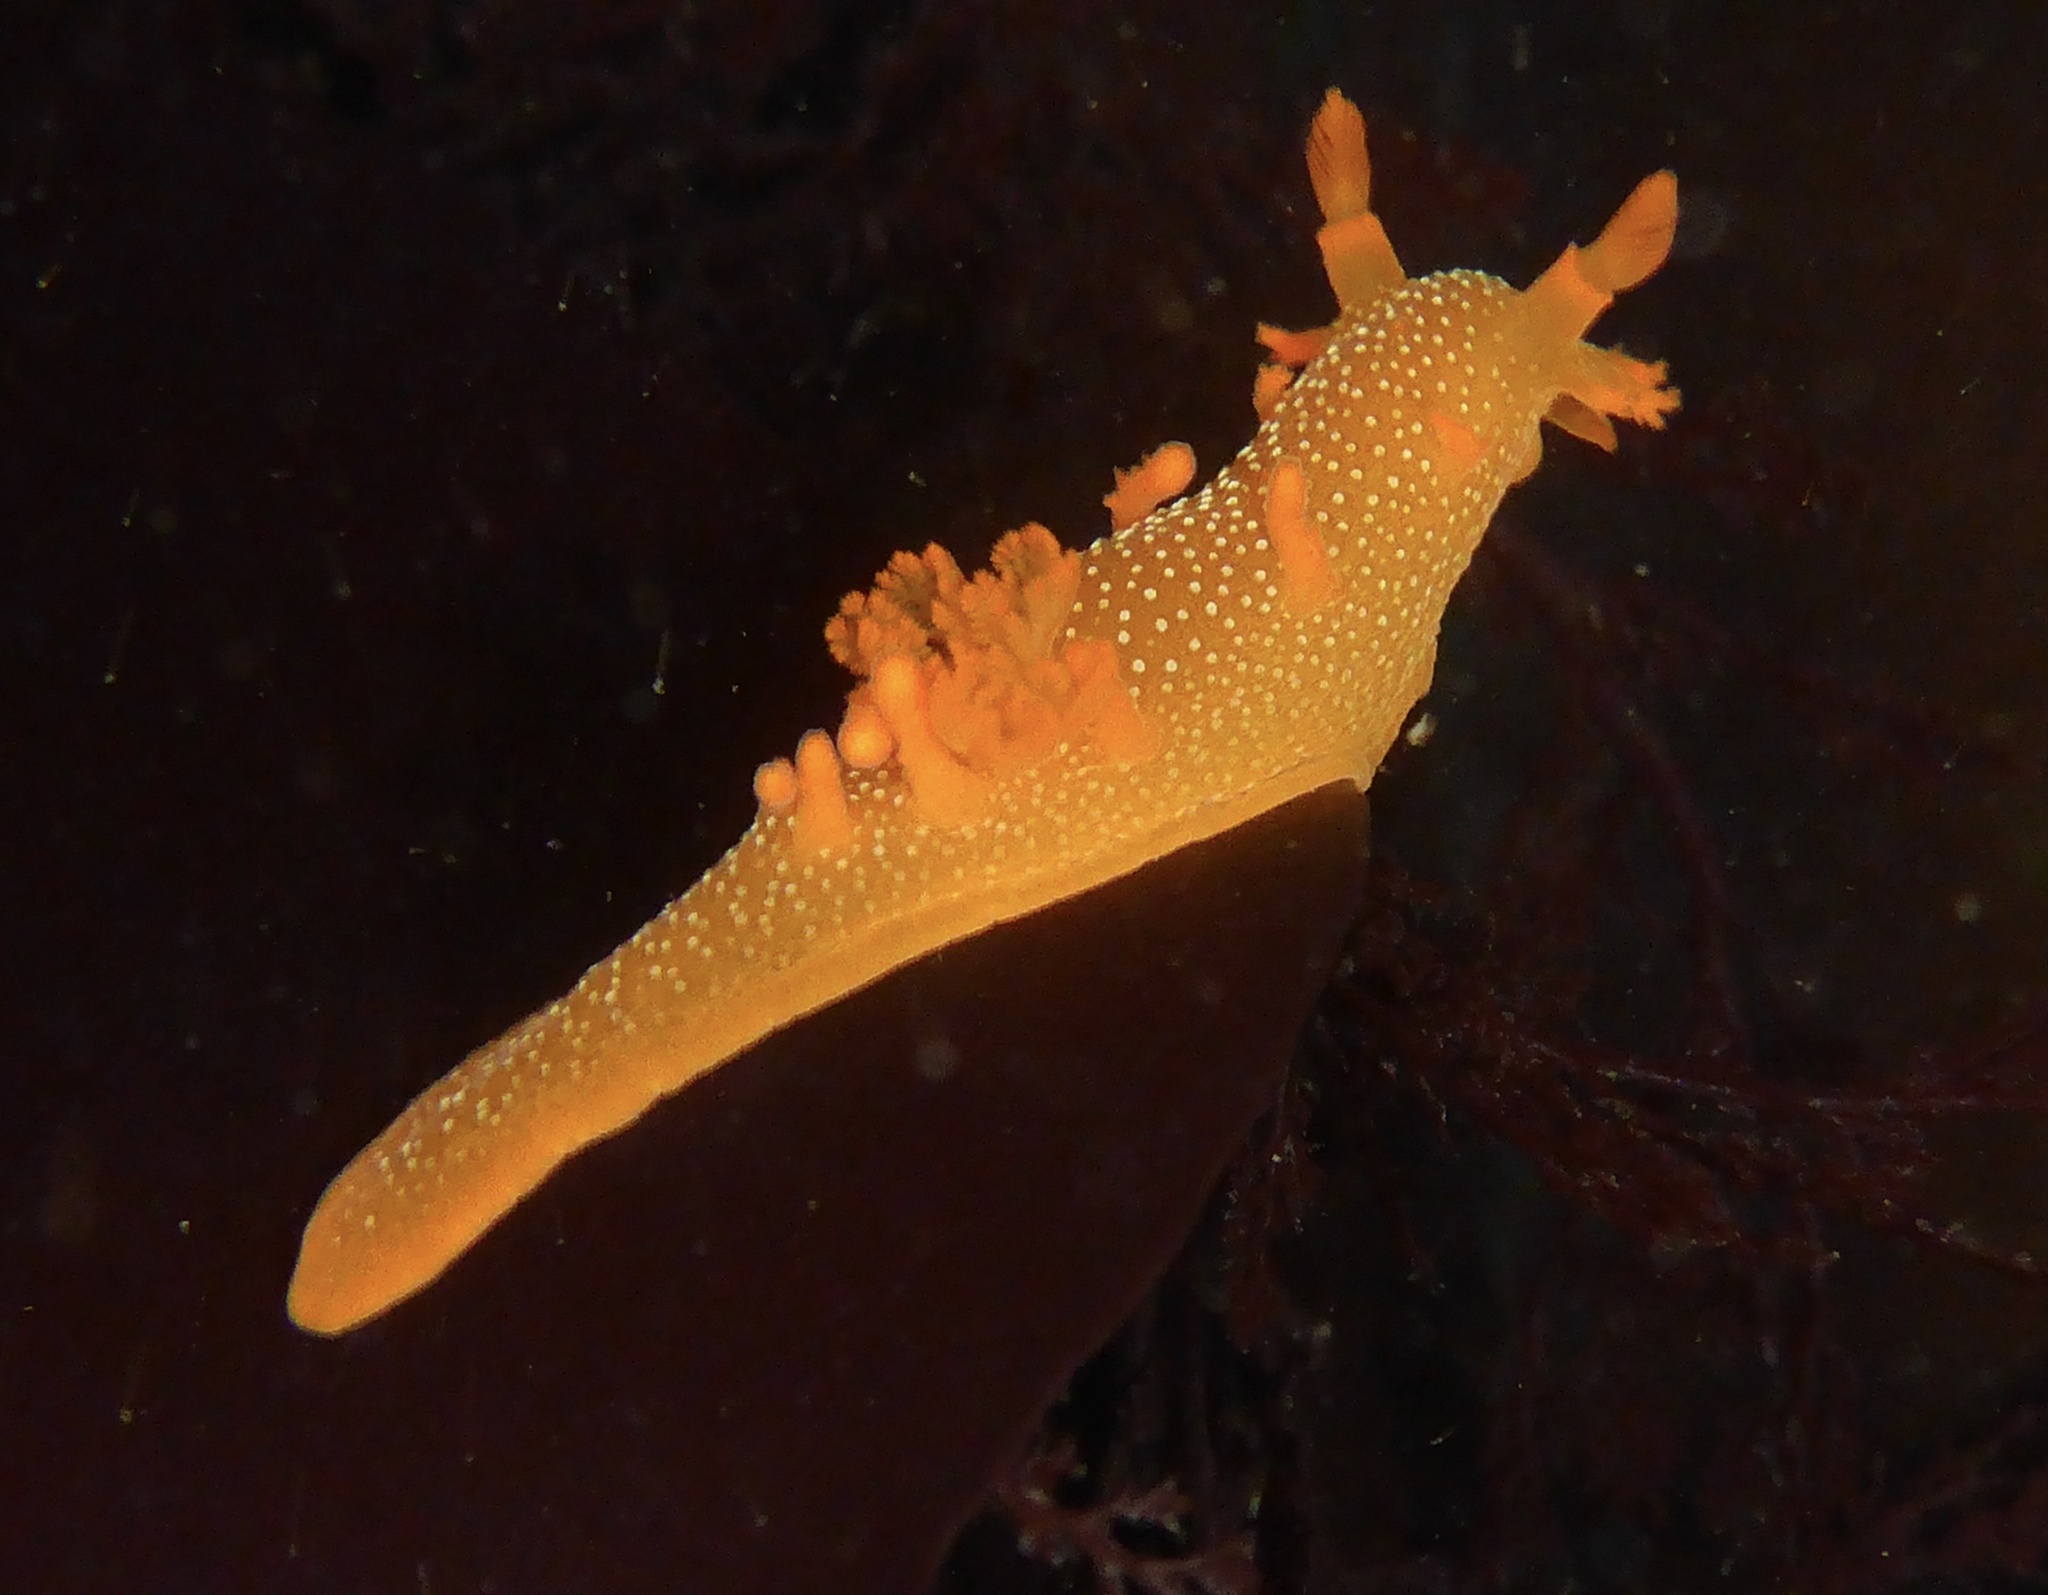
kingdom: Animalia
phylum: Mollusca
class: Gastropoda
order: Nudibranchia
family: Polyceridae
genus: Triopha
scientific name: Triopha maculata
